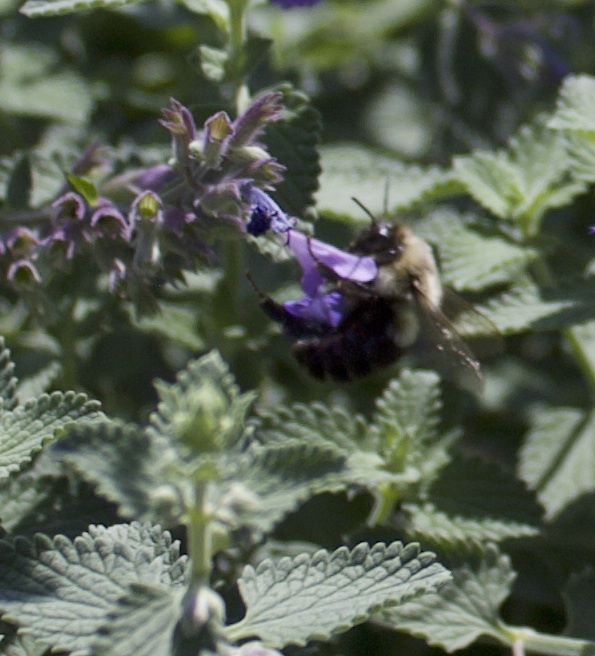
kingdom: Animalia
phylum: Arthropoda
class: Insecta
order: Hymenoptera
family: Apidae
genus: Bombus
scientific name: Bombus impatiens
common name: Common eastern bumble bee
